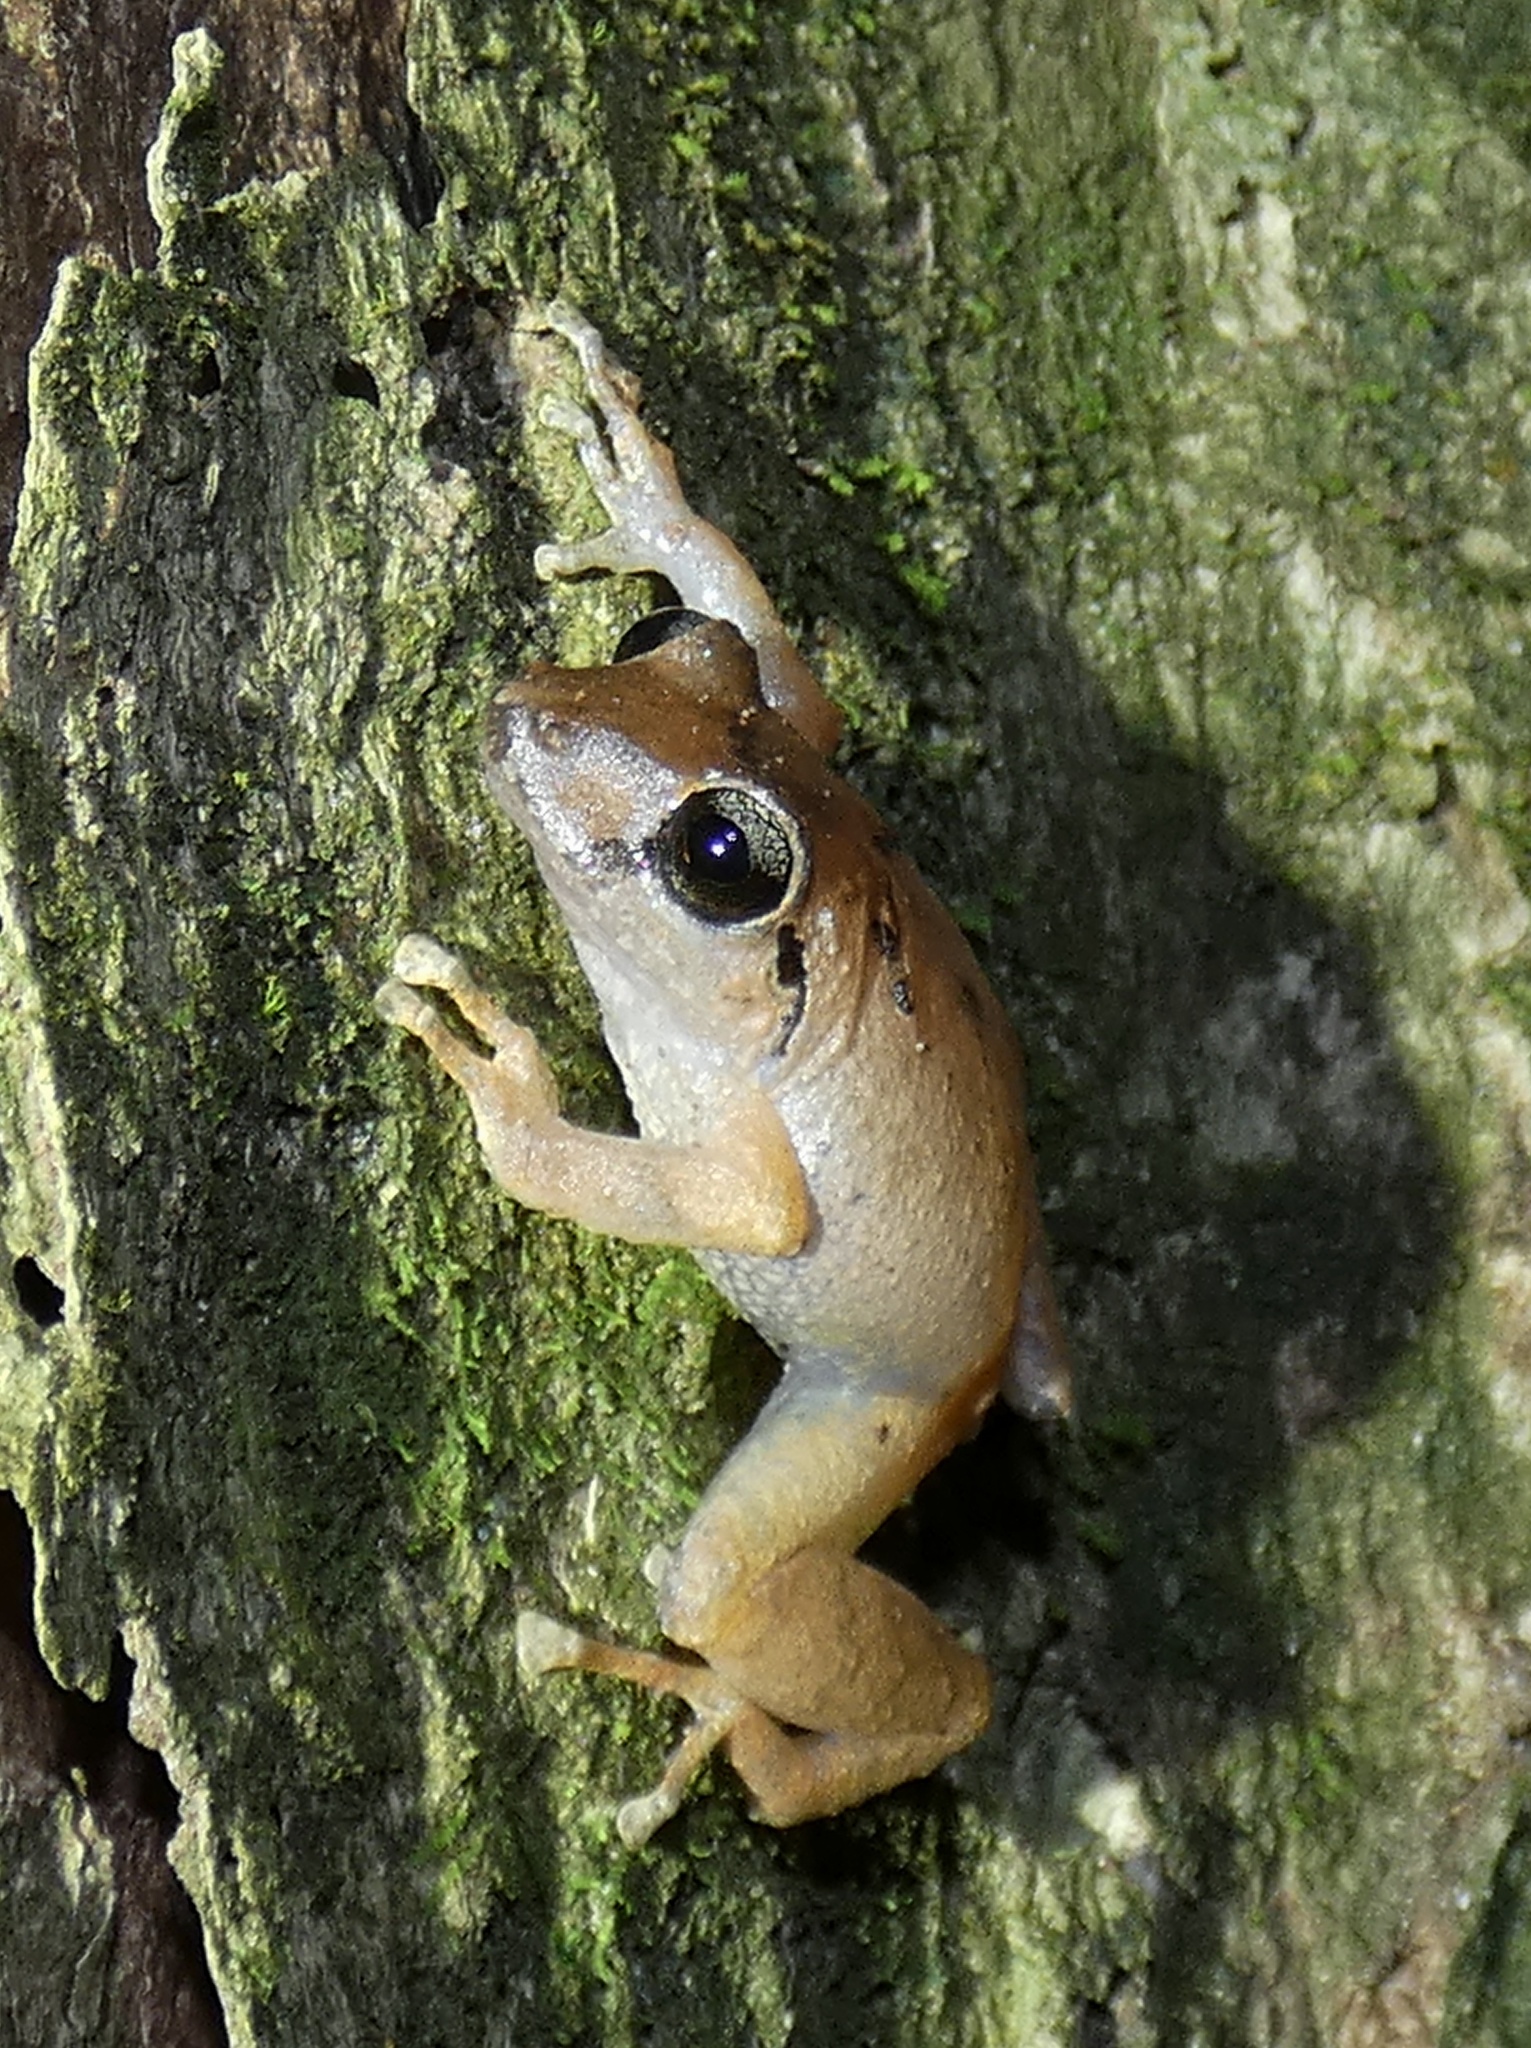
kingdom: Animalia
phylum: Chordata
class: Amphibia
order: Anura
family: Craugastoridae
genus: Pristimantis
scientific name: Pristimantis taeniatus
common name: Banded robber frog
